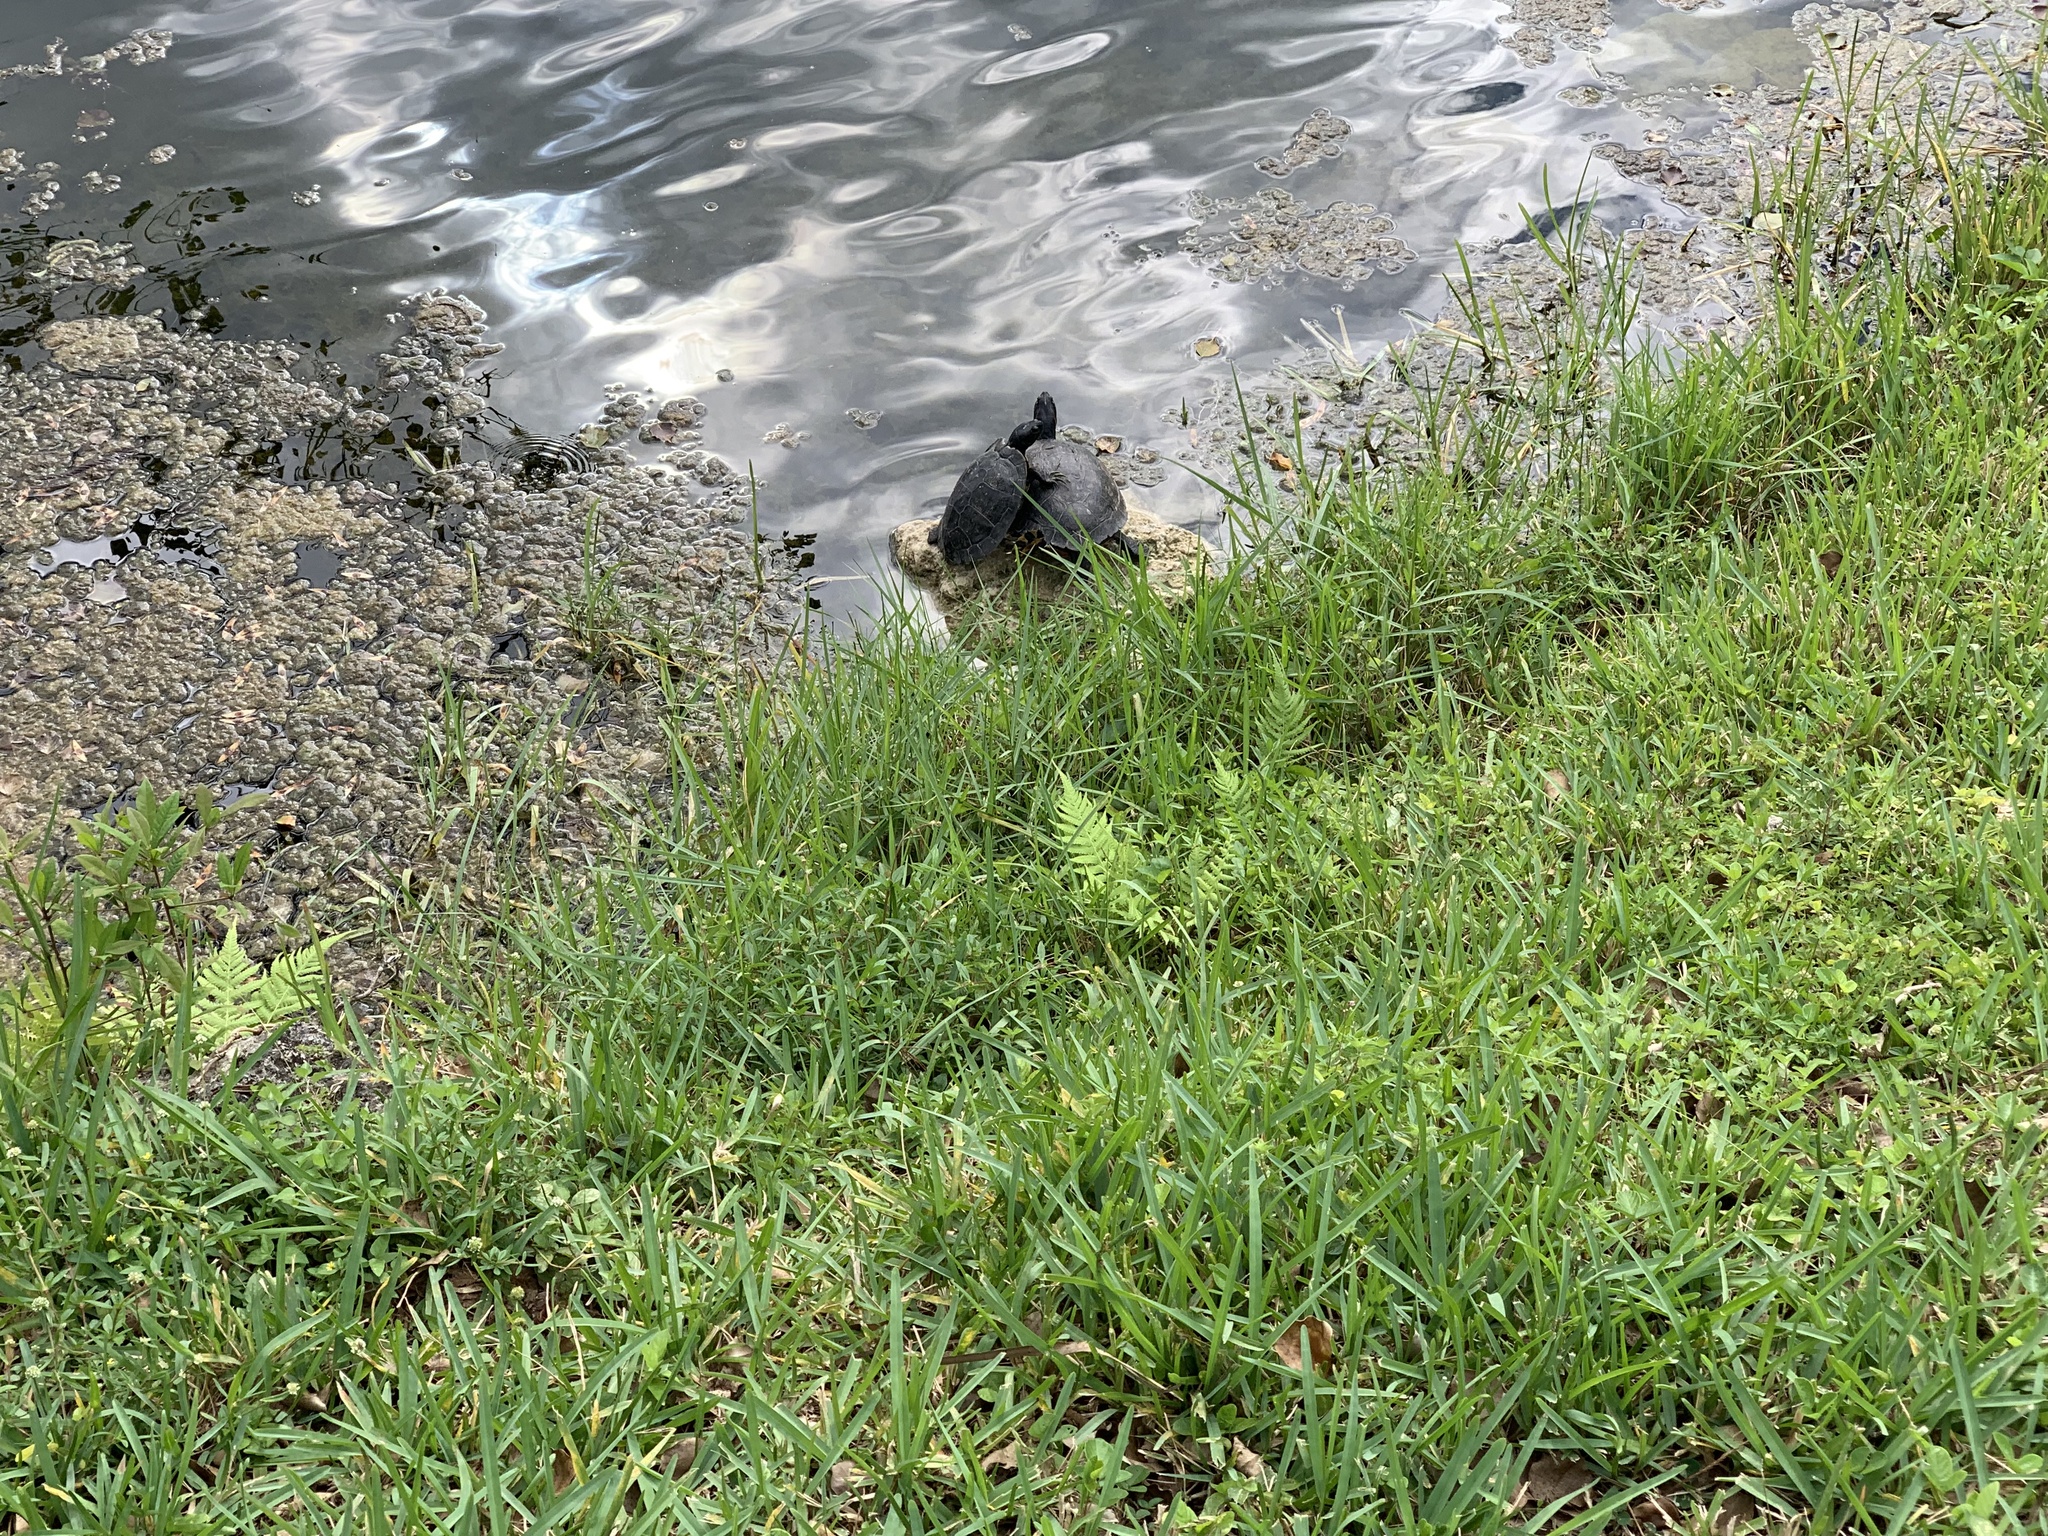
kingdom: Animalia
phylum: Chordata
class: Testudines
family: Emydidae
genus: Trachemys
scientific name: Trachemys scripta
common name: Slider
